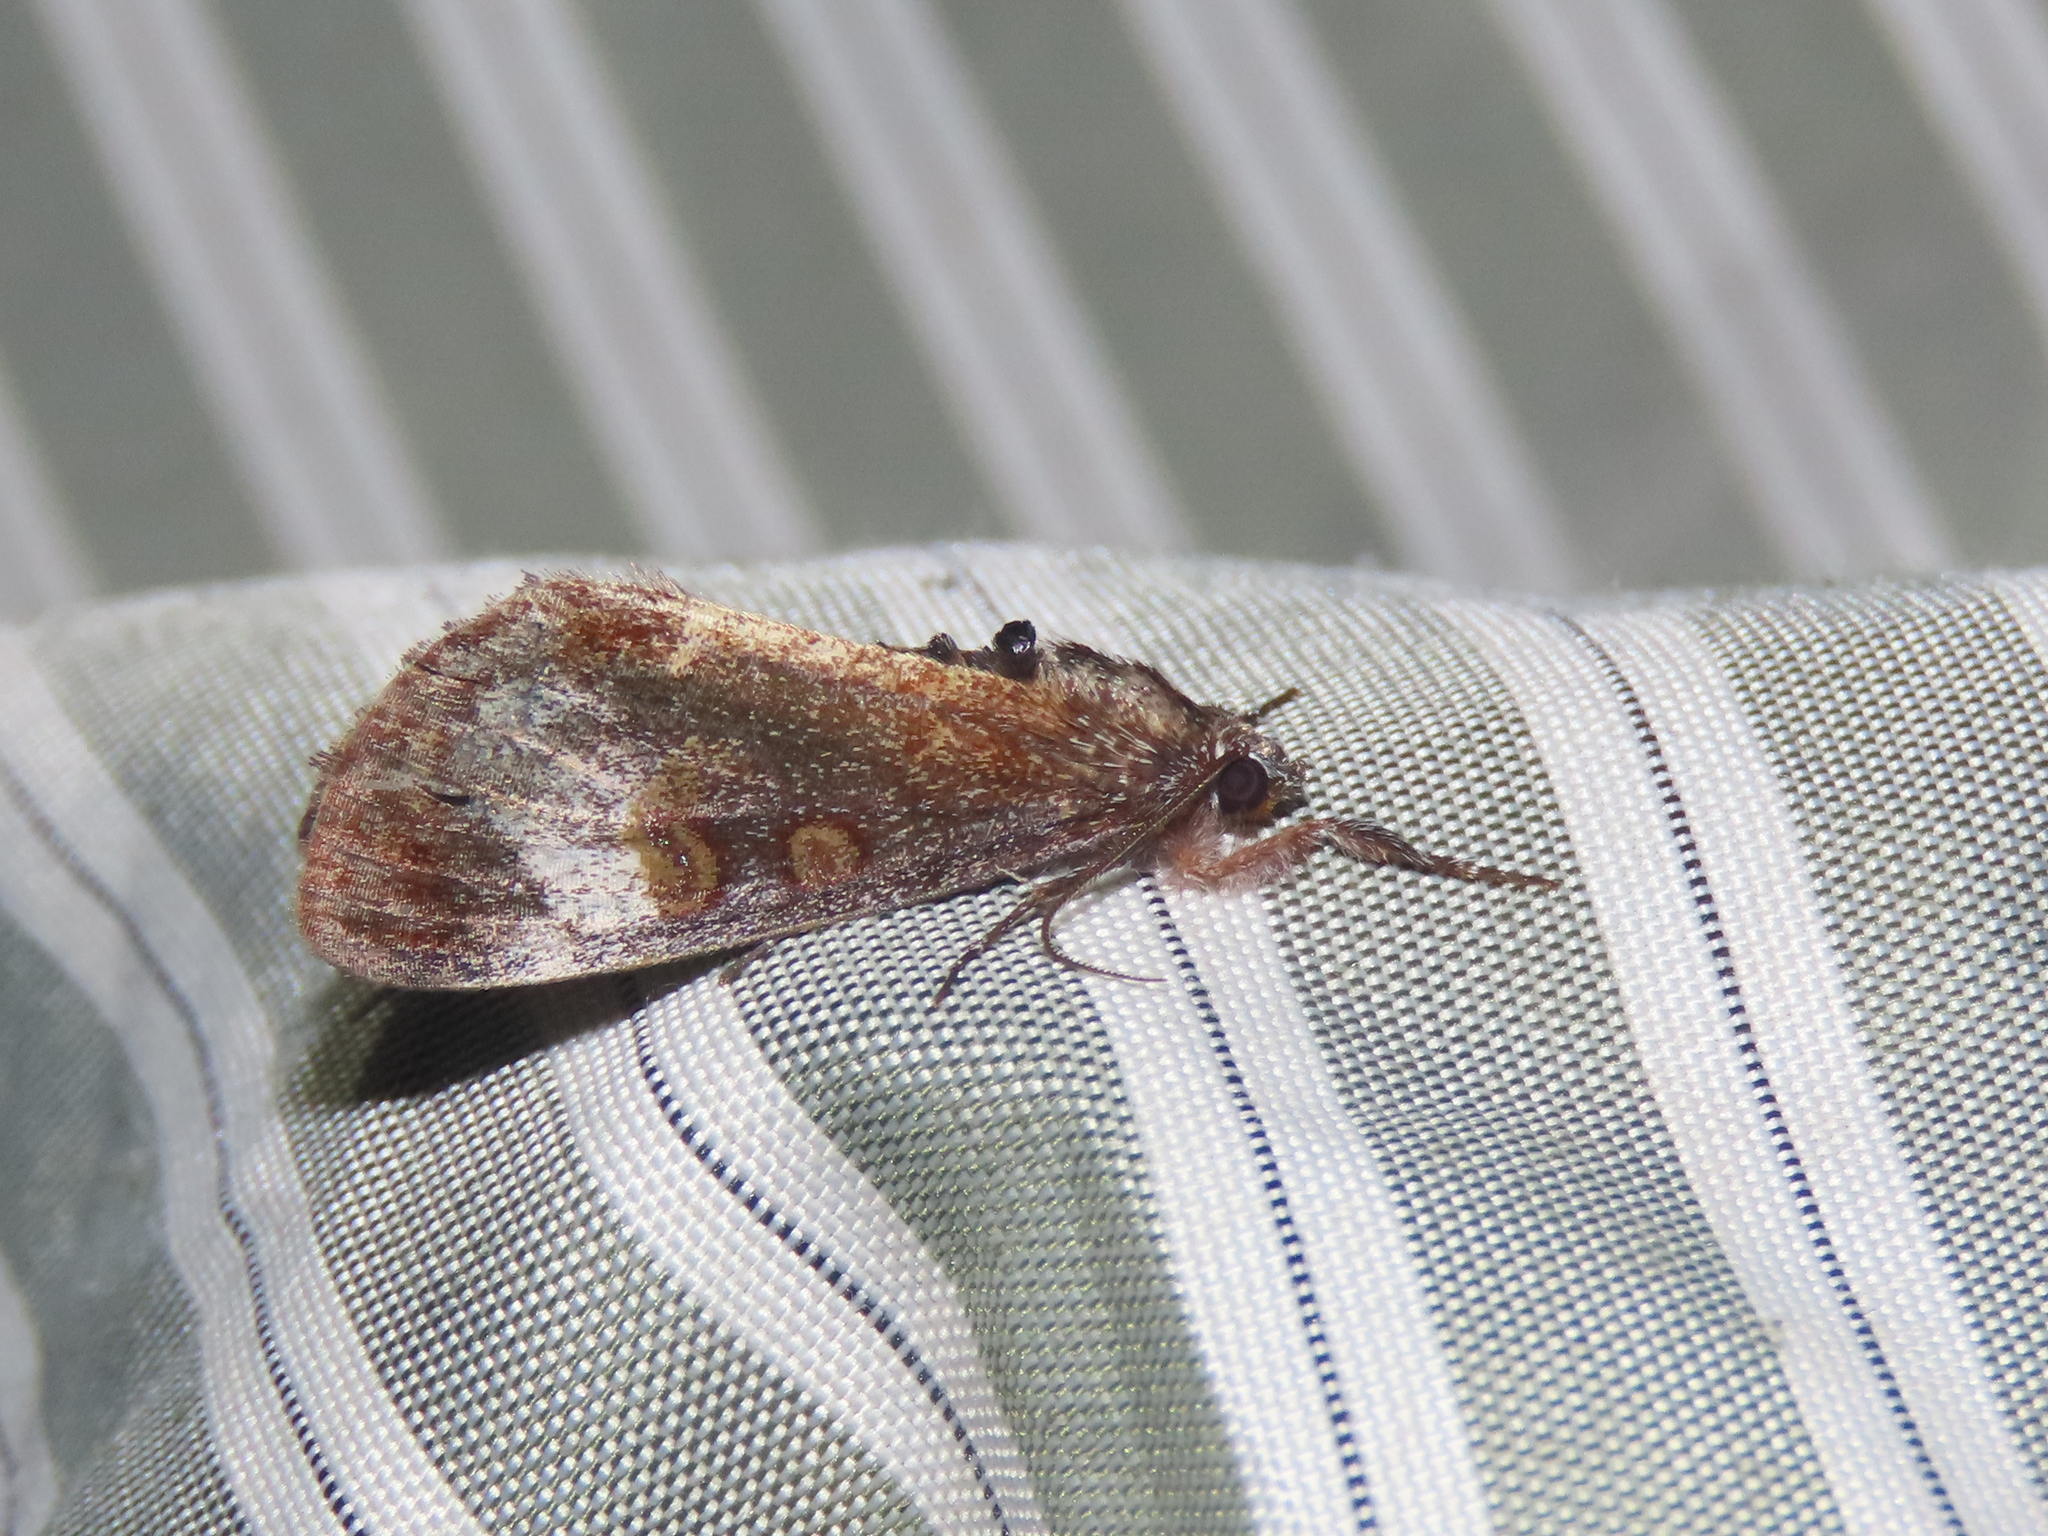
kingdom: Animalia
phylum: Arthropoda
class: Insecta
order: Lepidoptera
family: Noctuidae
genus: Gerra
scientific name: Gerra sevorsa
